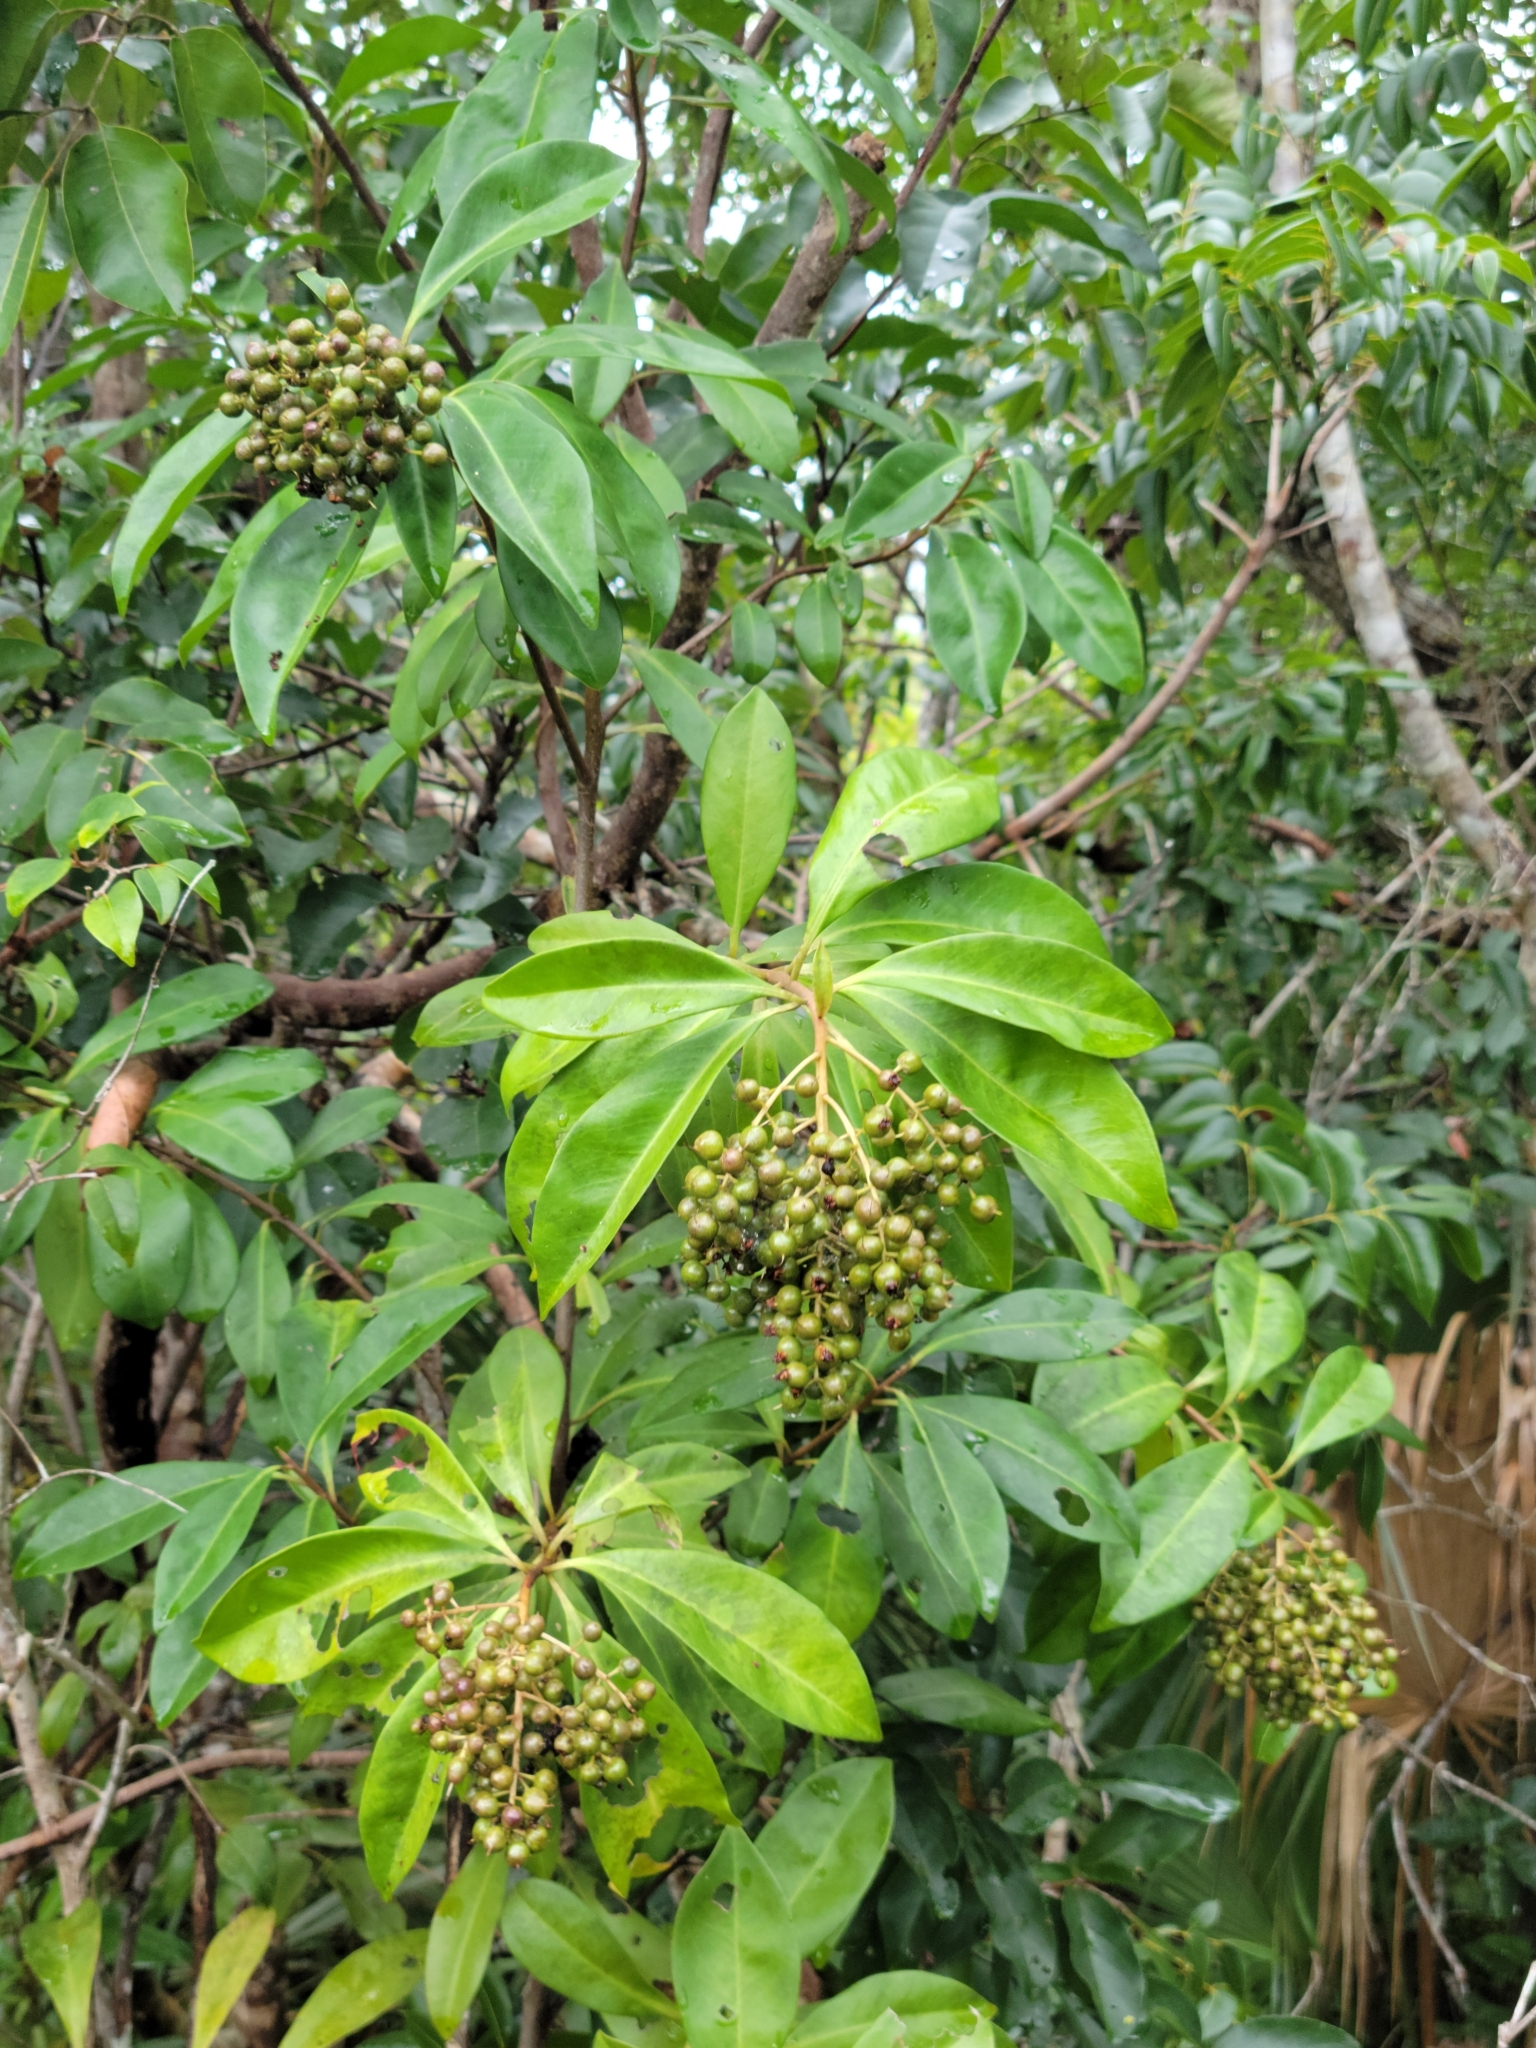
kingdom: Plantae
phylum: Tracheophyta
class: Magnoliopsida
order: Ericales
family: Primulaceae
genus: Ardisia
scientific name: Ardisia escallonioides
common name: Island marlberry
